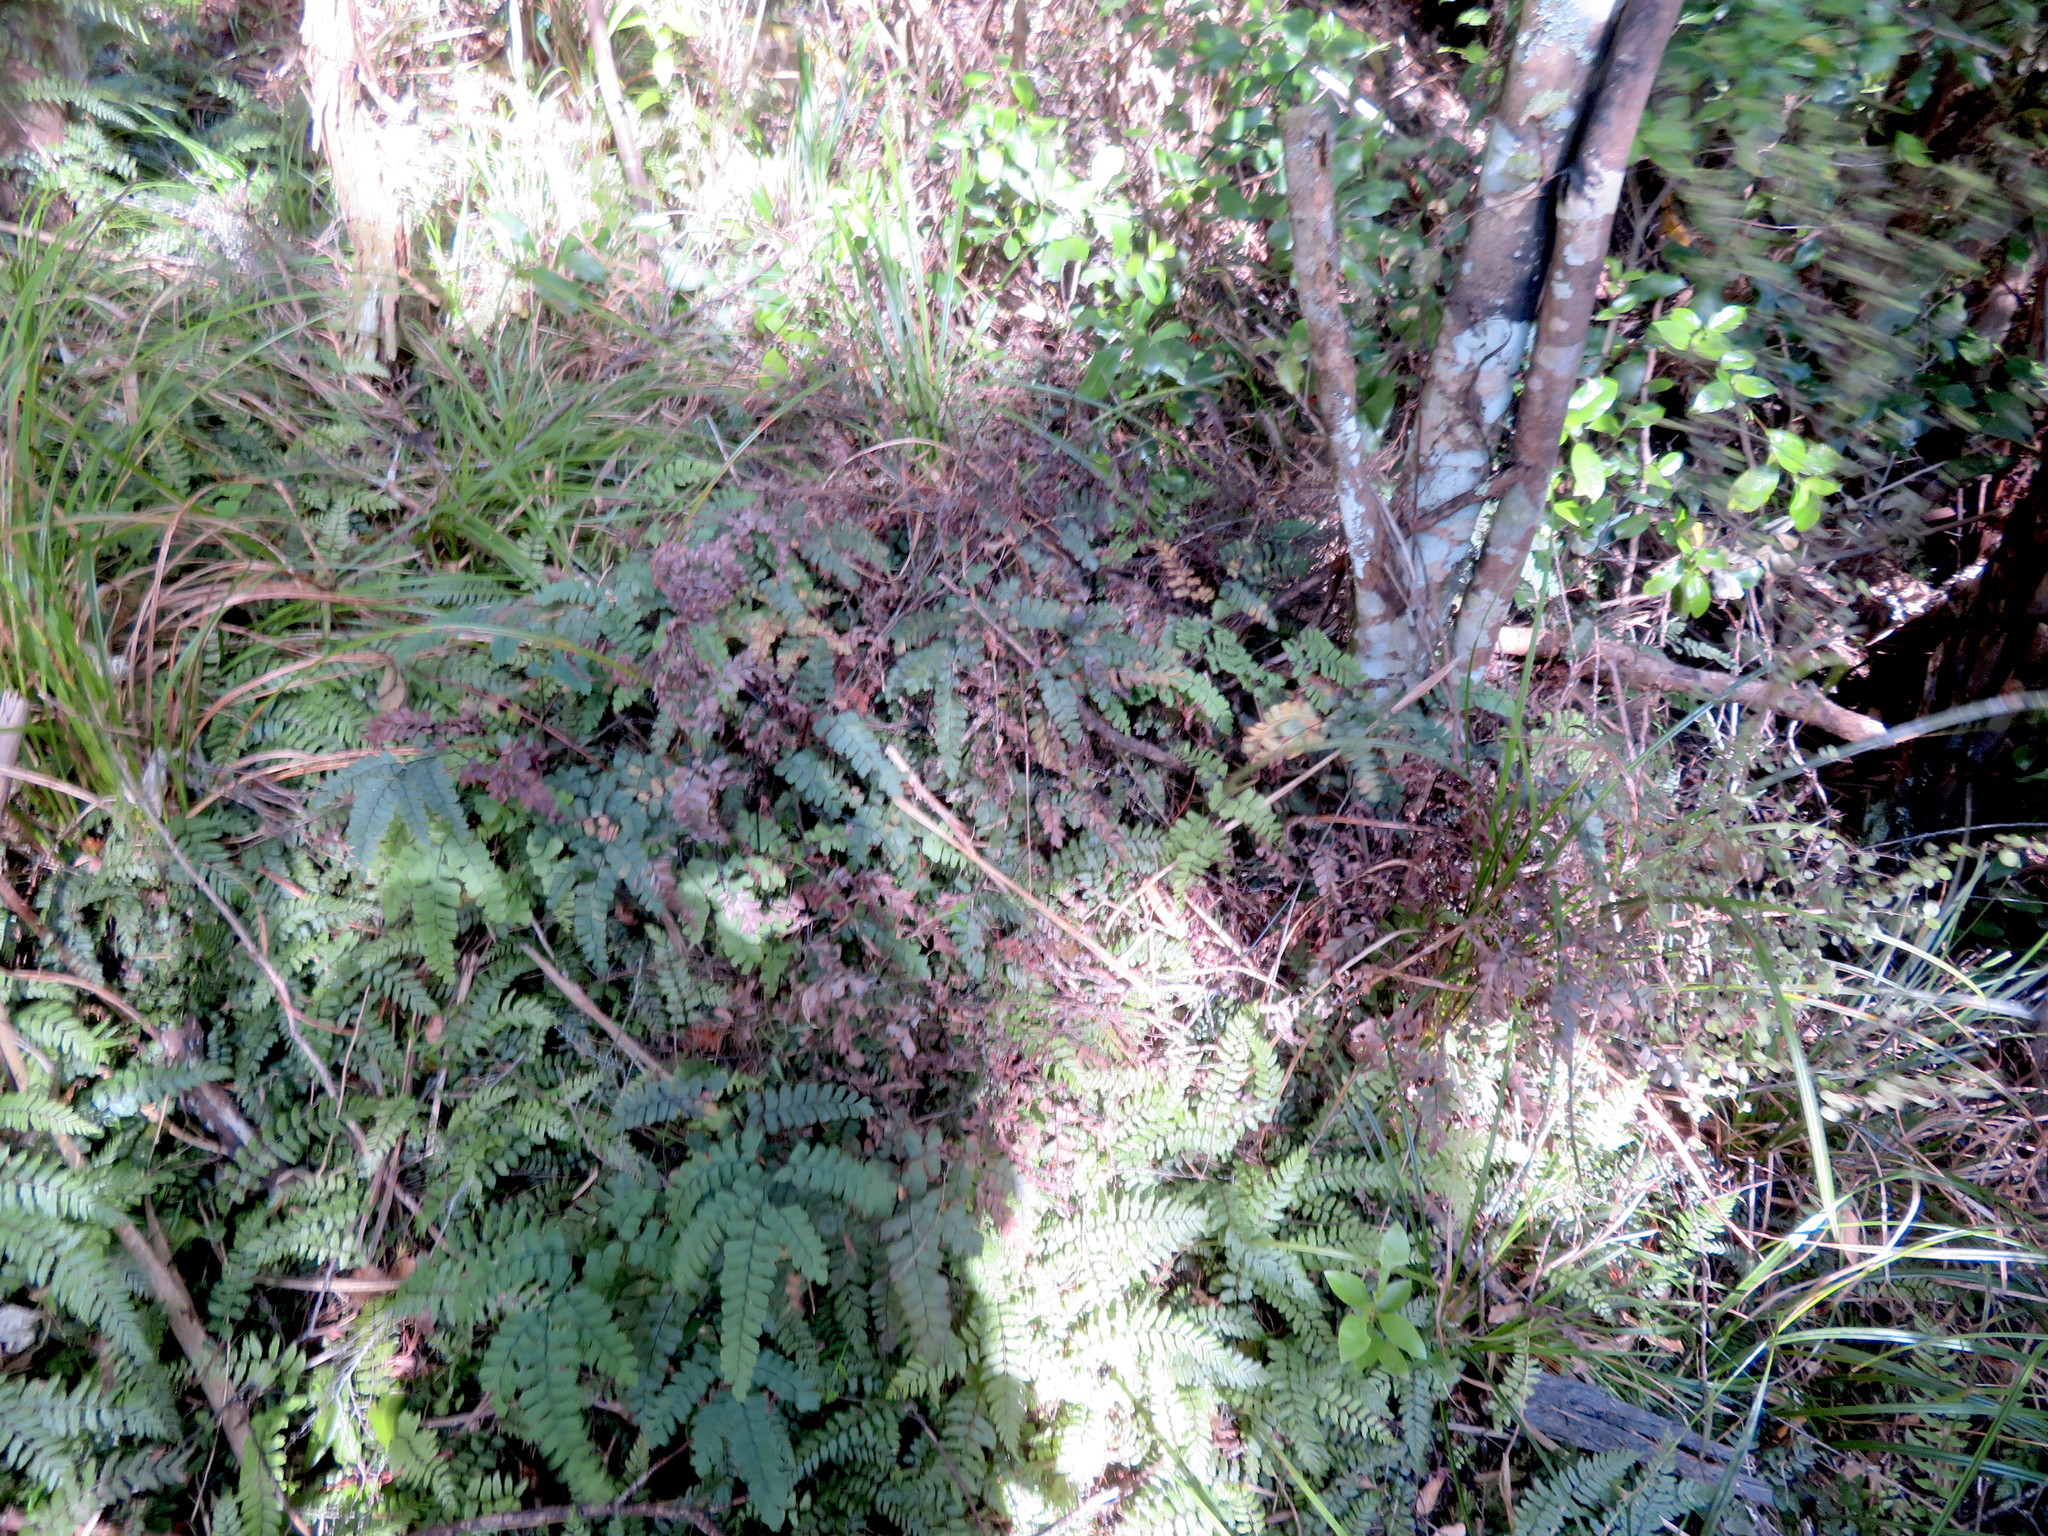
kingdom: Plantae
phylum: Tracheophyta
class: Polypodiopsida
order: Polypodiales
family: Pteridaceae
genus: Adiantum
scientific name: Adiantum cunninghamii
